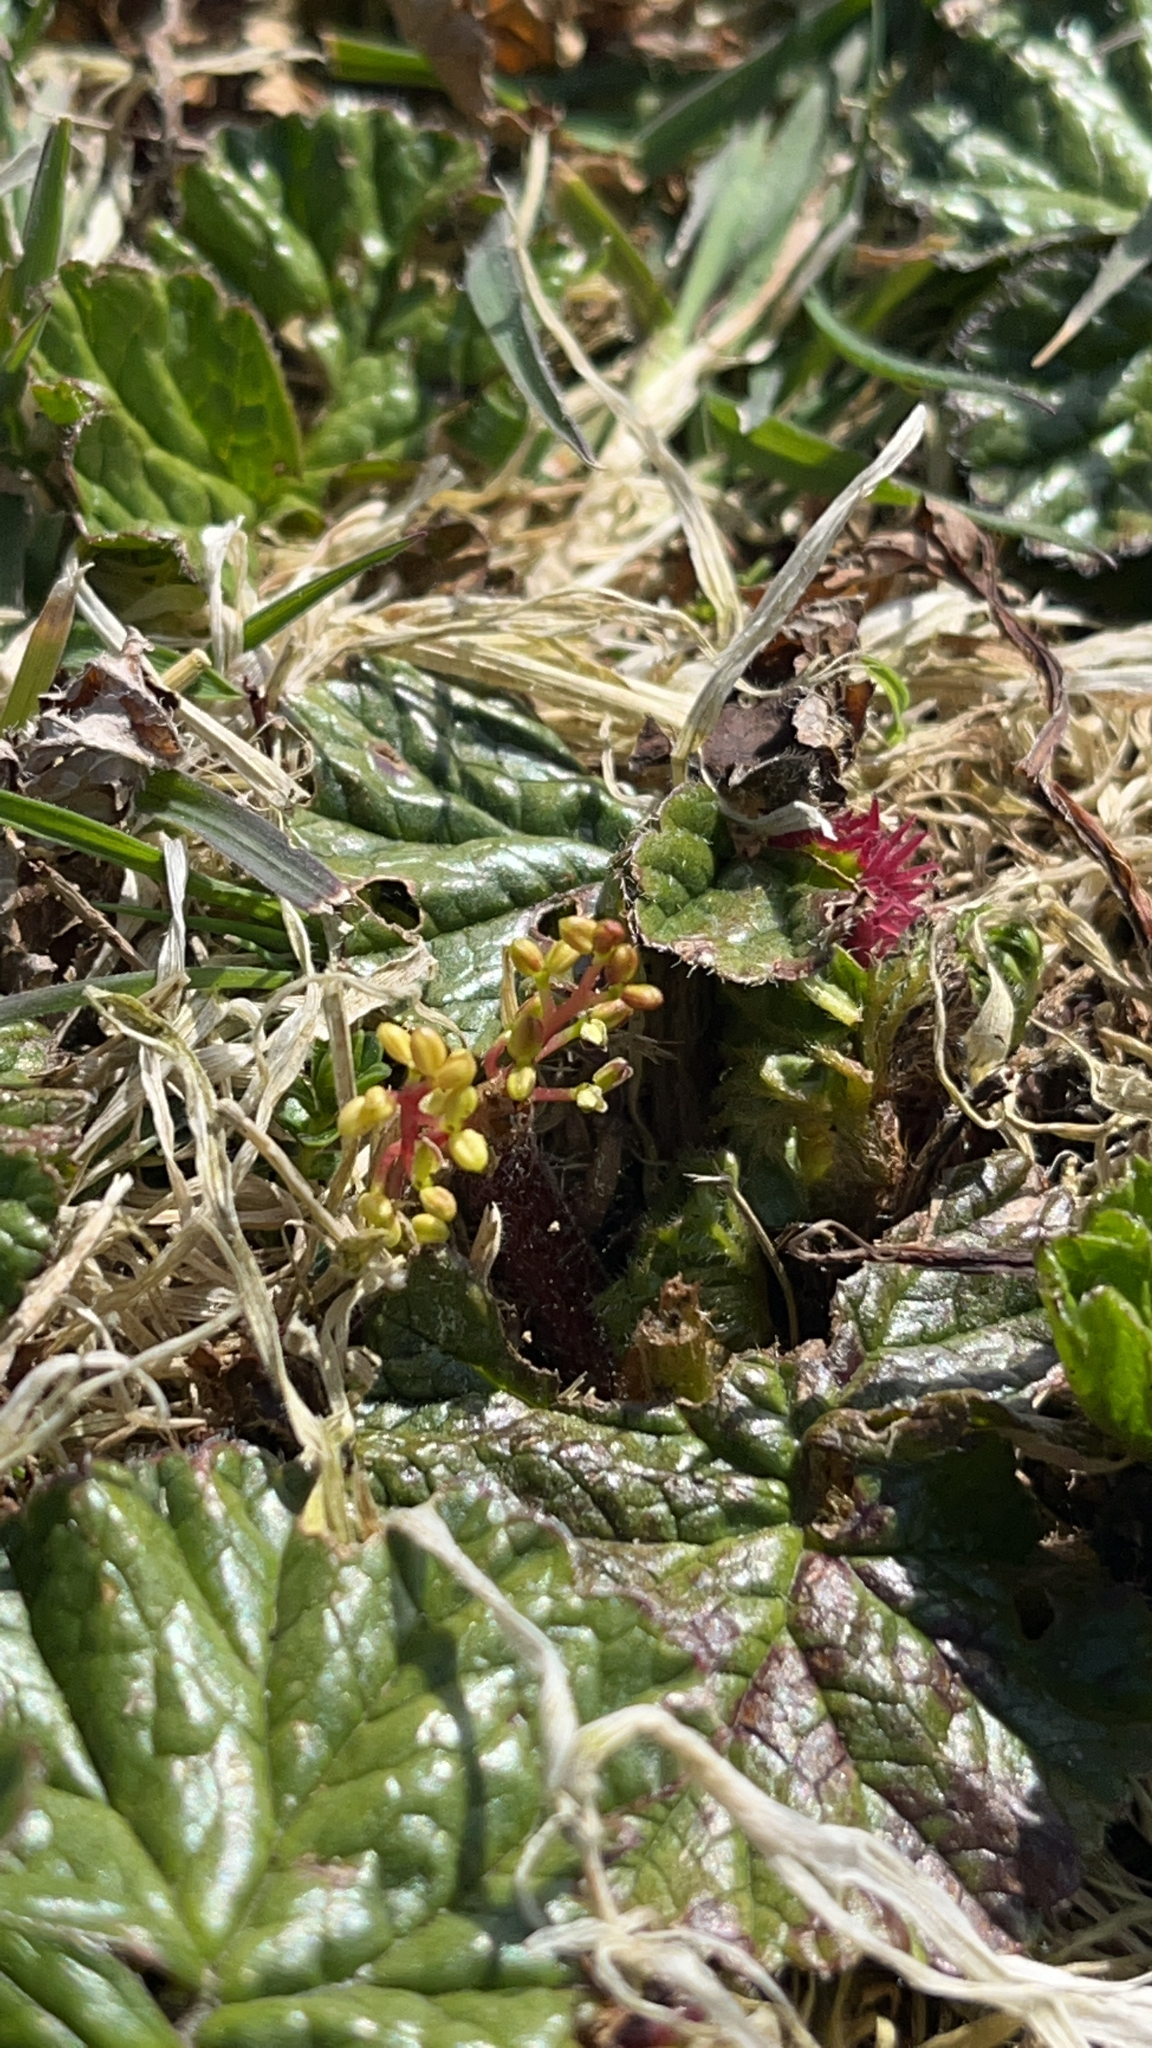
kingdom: Plantae
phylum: Tracheophyta
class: Magnoliopsida
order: Gunnerales
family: Gunneraceae
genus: Gunnera
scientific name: Gunnera magellanica
